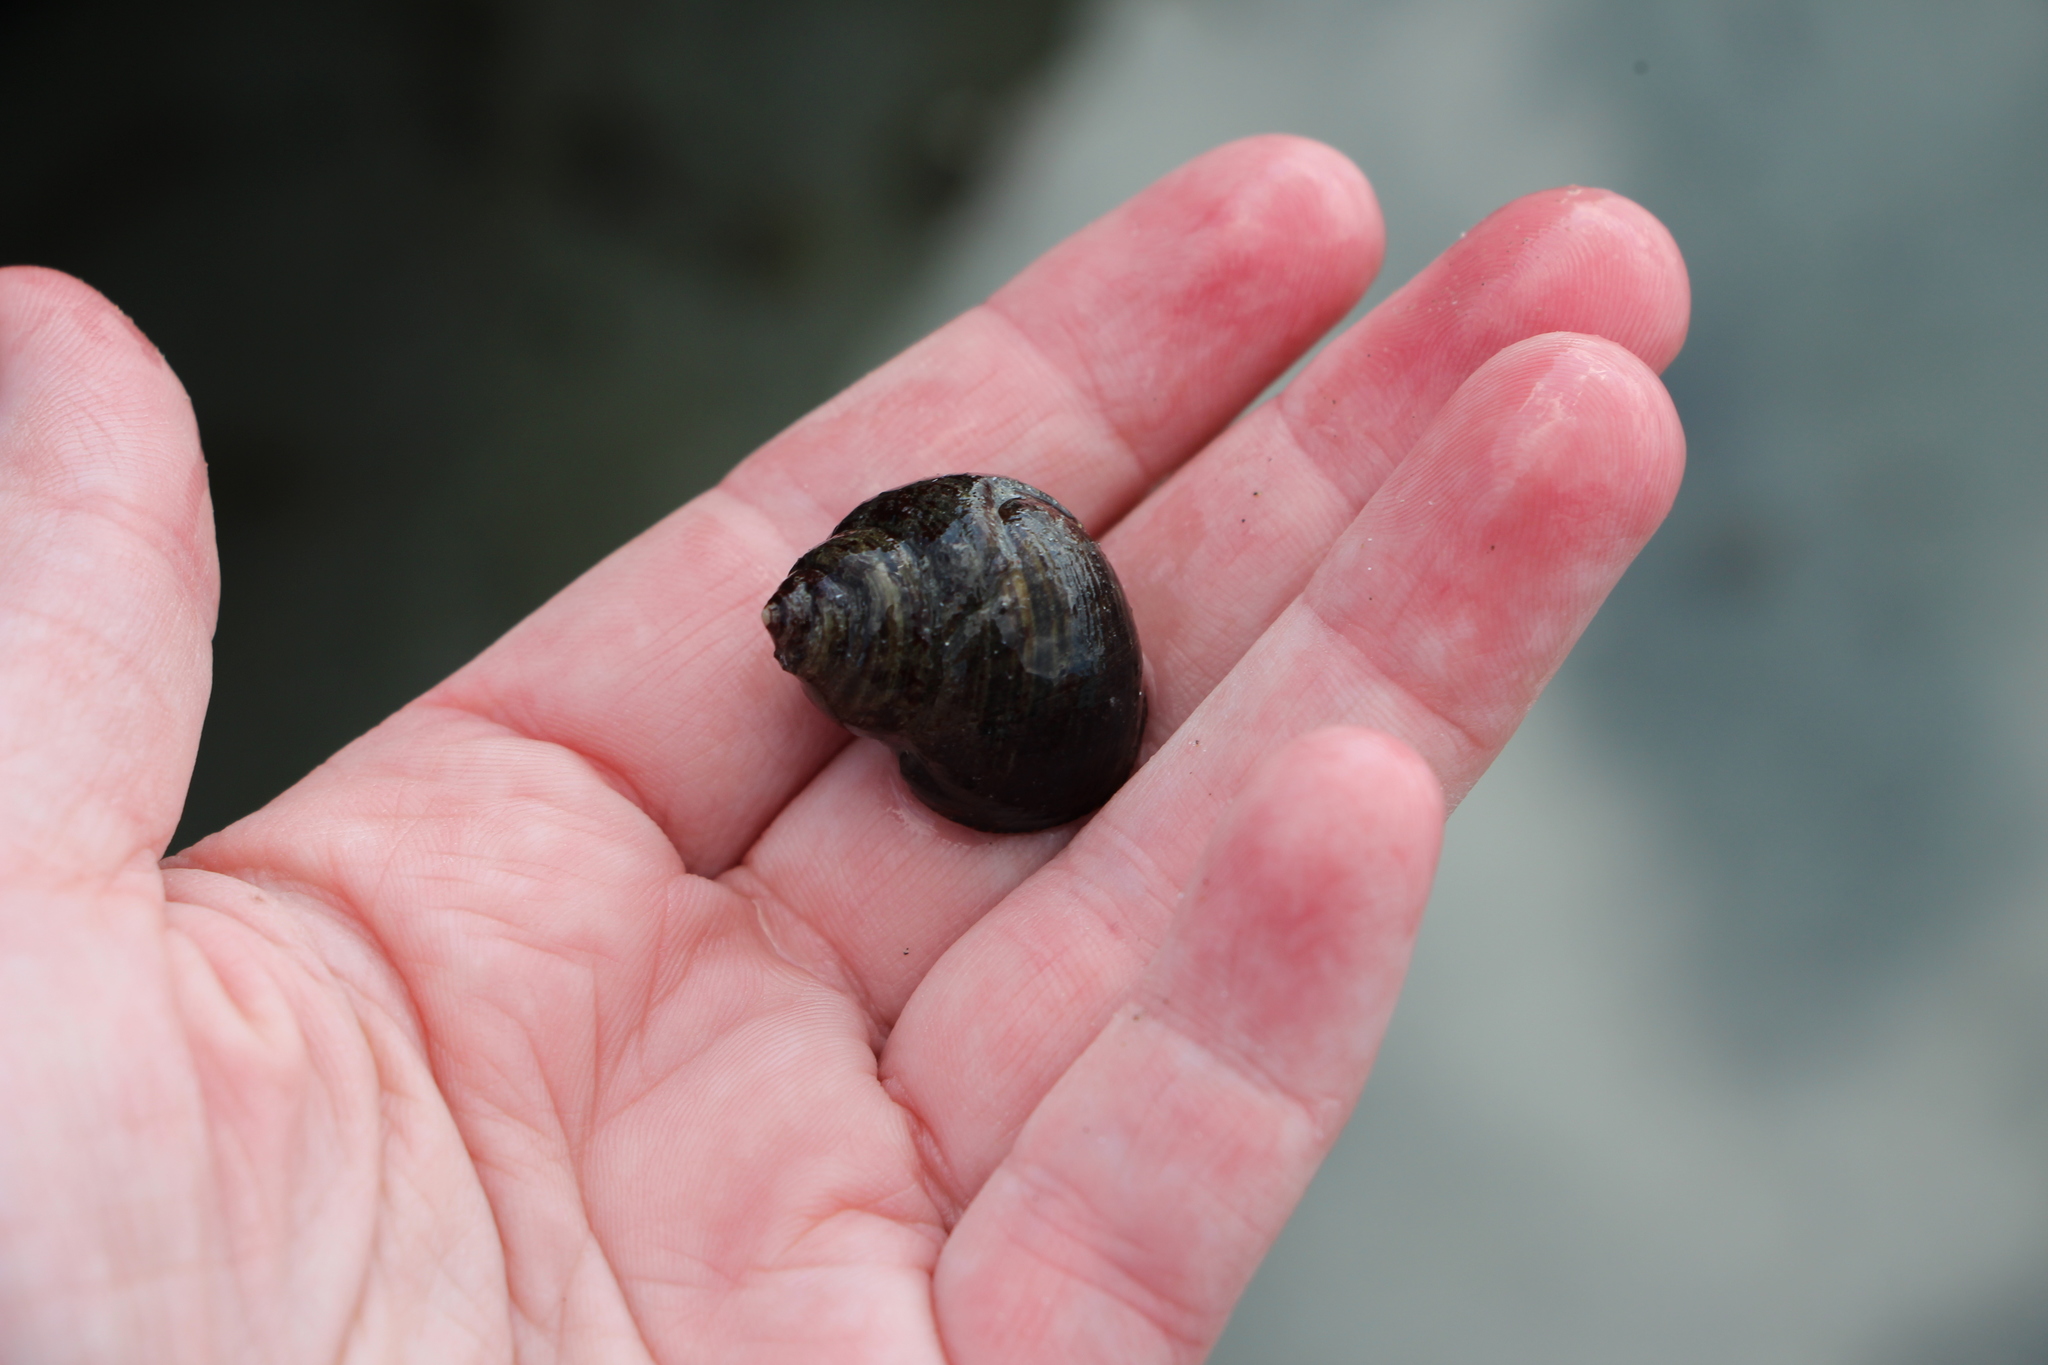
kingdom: Animalia
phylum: Mollusca
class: Gastropoda
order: Littorinimorpha
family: Littorinidae
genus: Littorina
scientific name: Littorina littorea
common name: Common periwinkle
